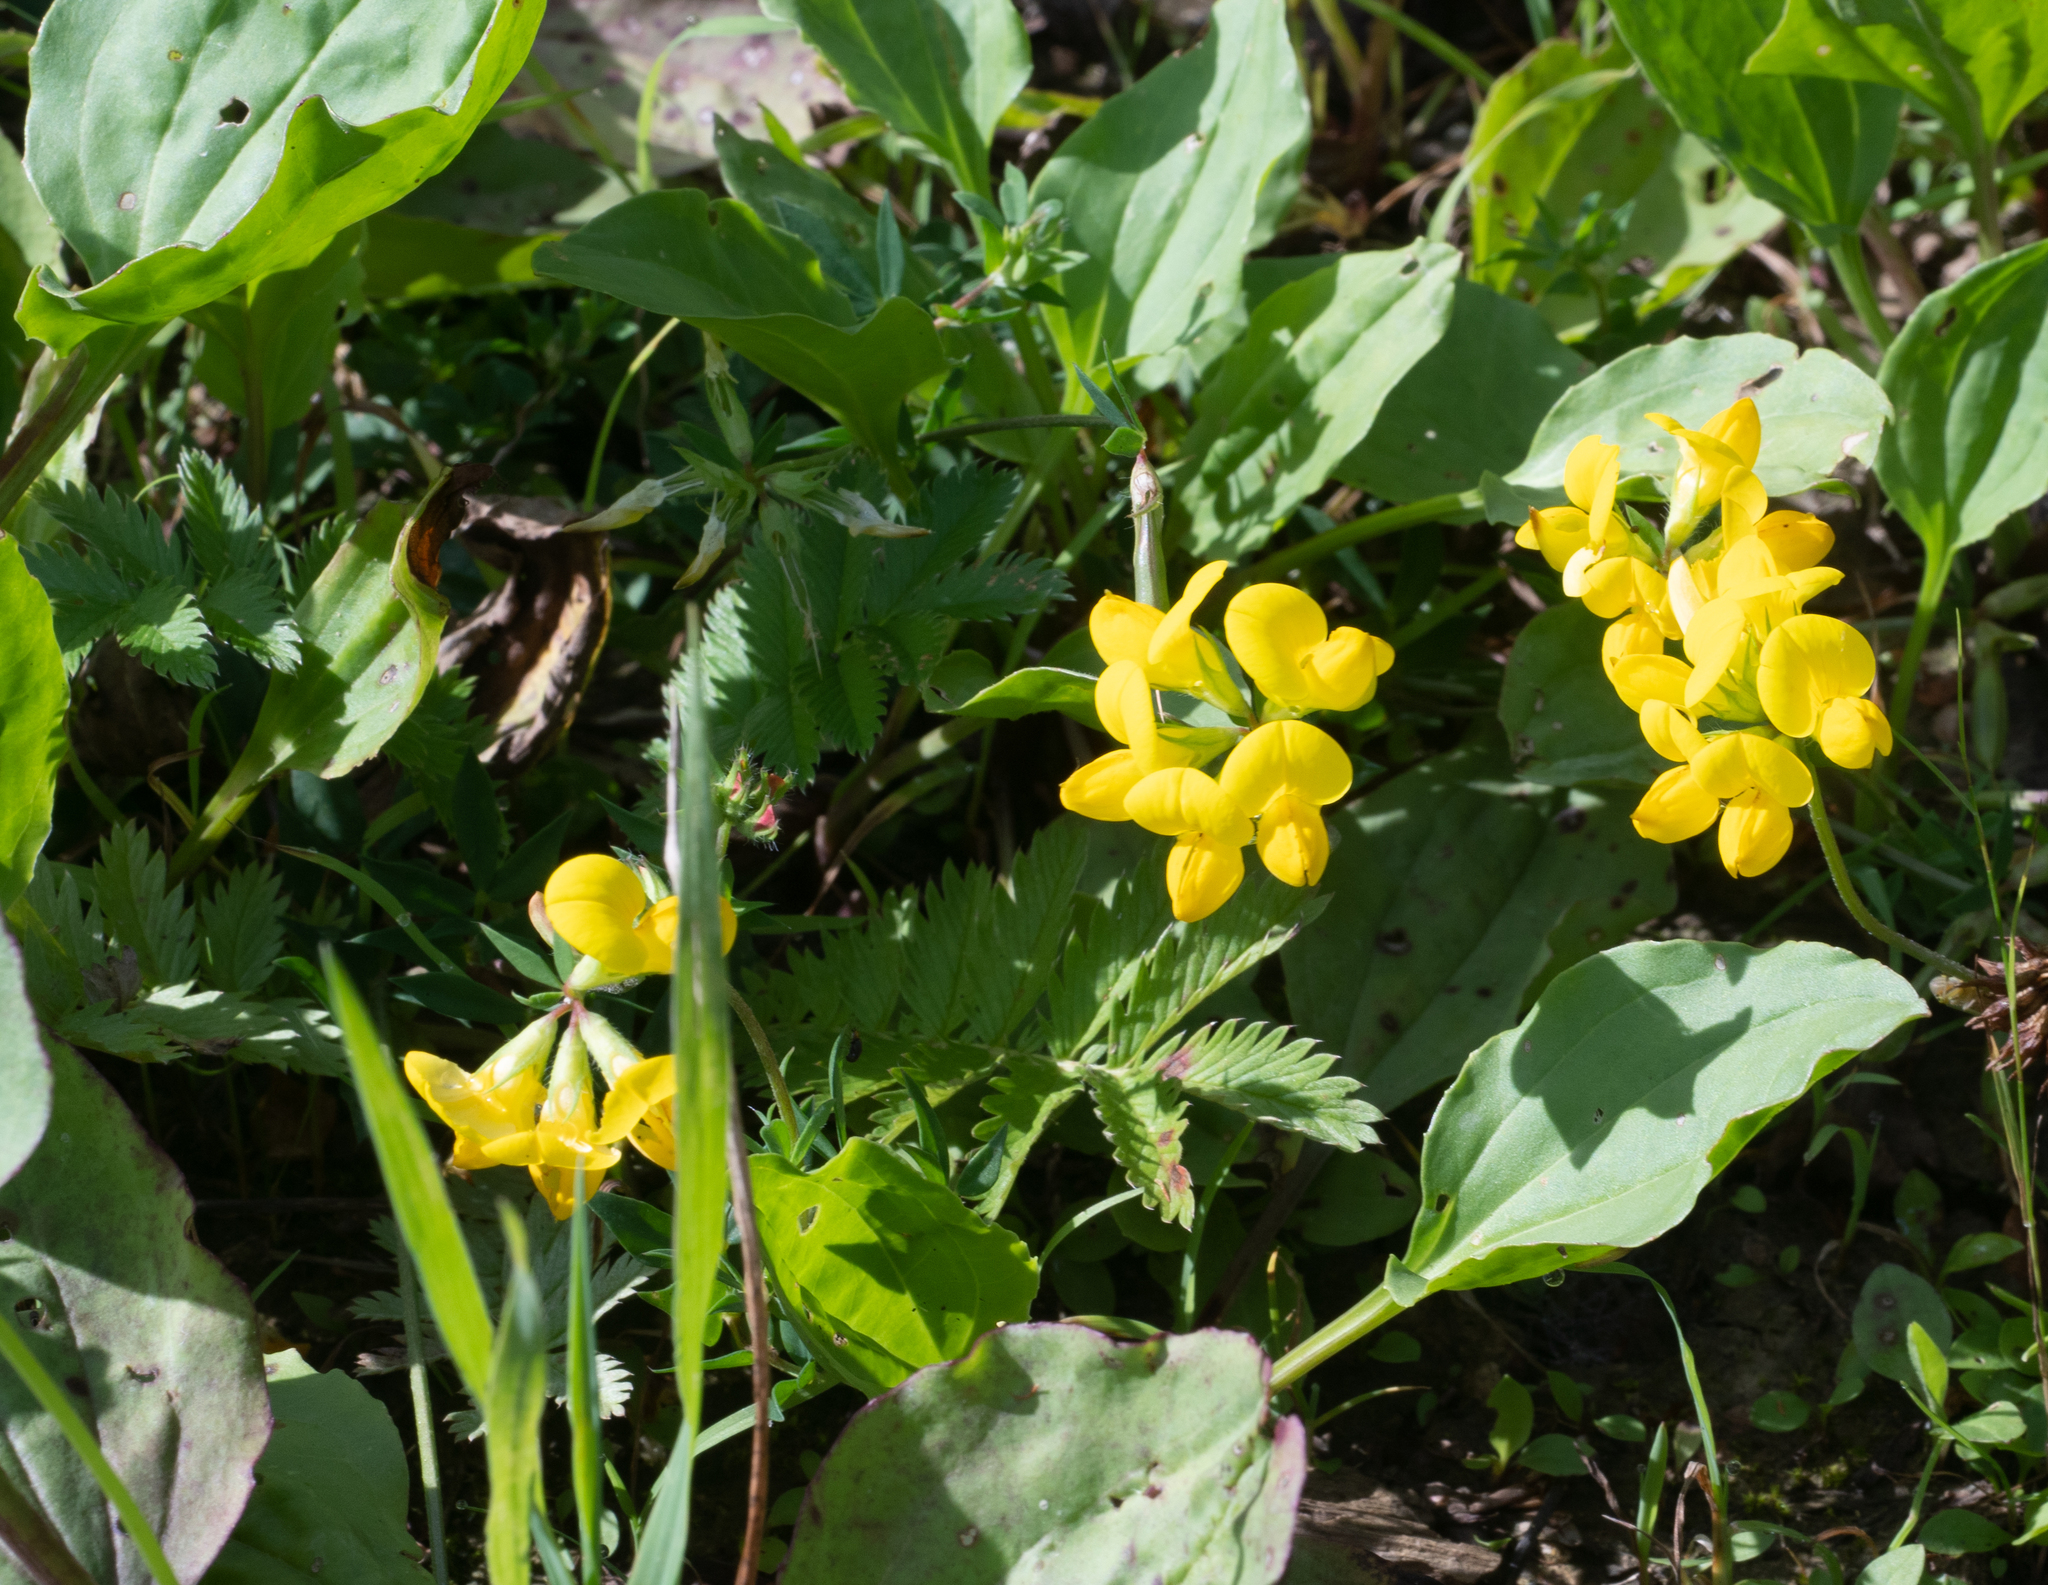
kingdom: Plantae
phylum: Tracheophyta
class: Magnoliopsida
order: Fabales
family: Fabaceae
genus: Lotus
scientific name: Lotus corniculatus
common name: Common bird's-foot-trefoil
